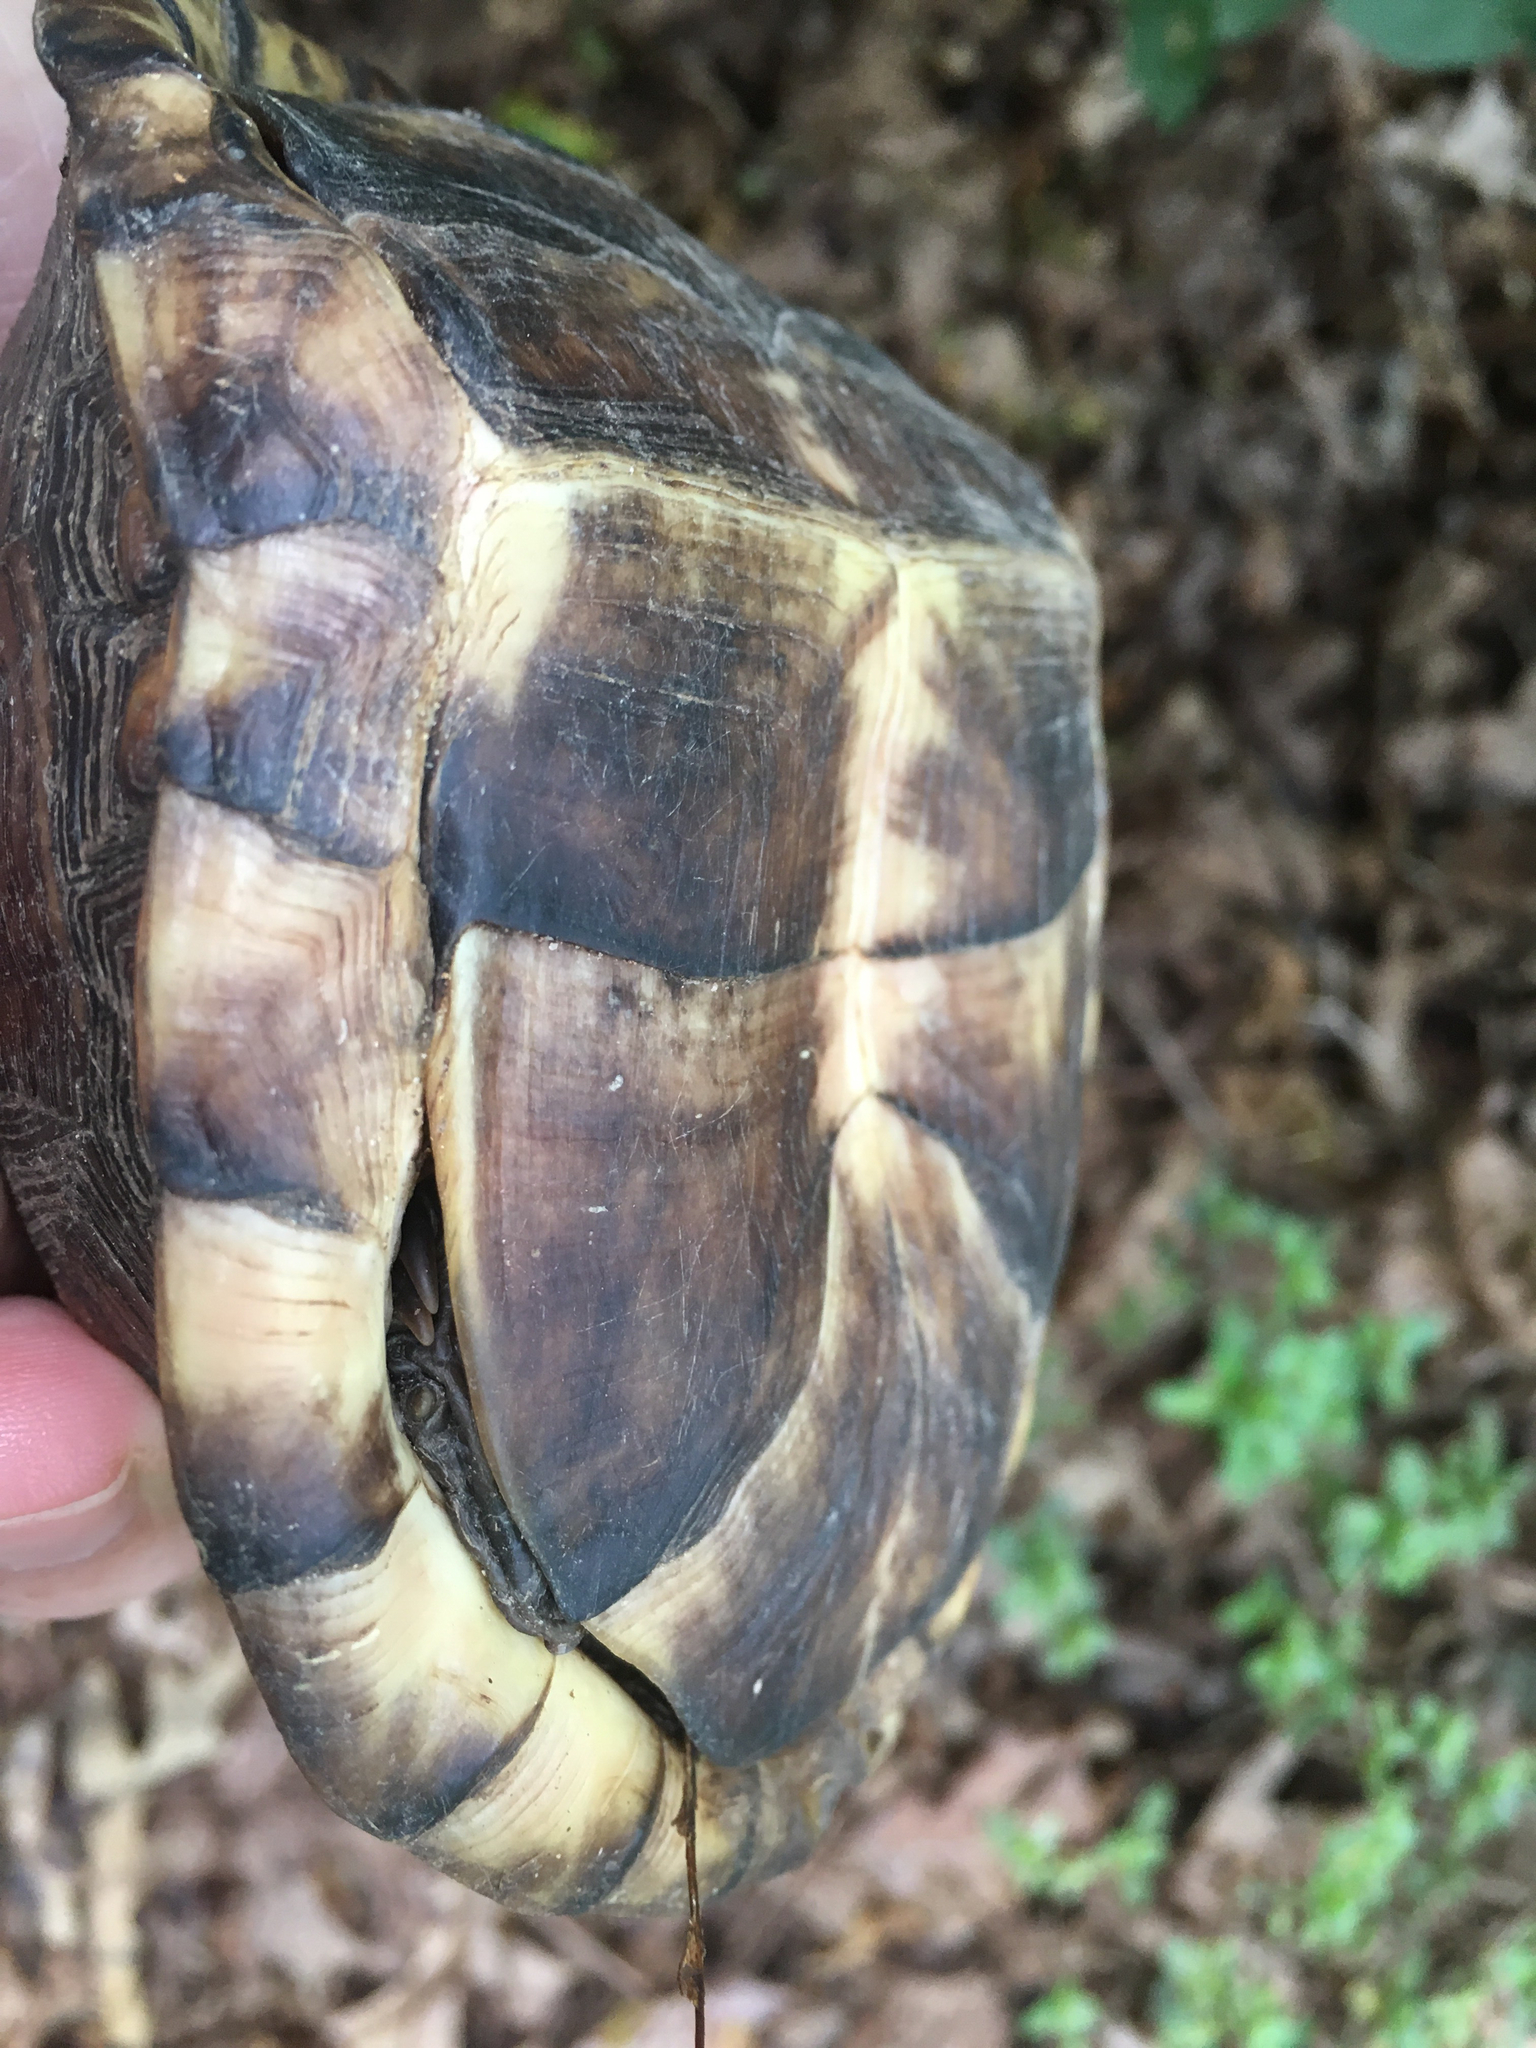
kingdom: Animalia
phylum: Chordata
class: Testudines
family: Emydidae
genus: Terrapene
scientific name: Terrapene carolina
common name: Common box turtle
